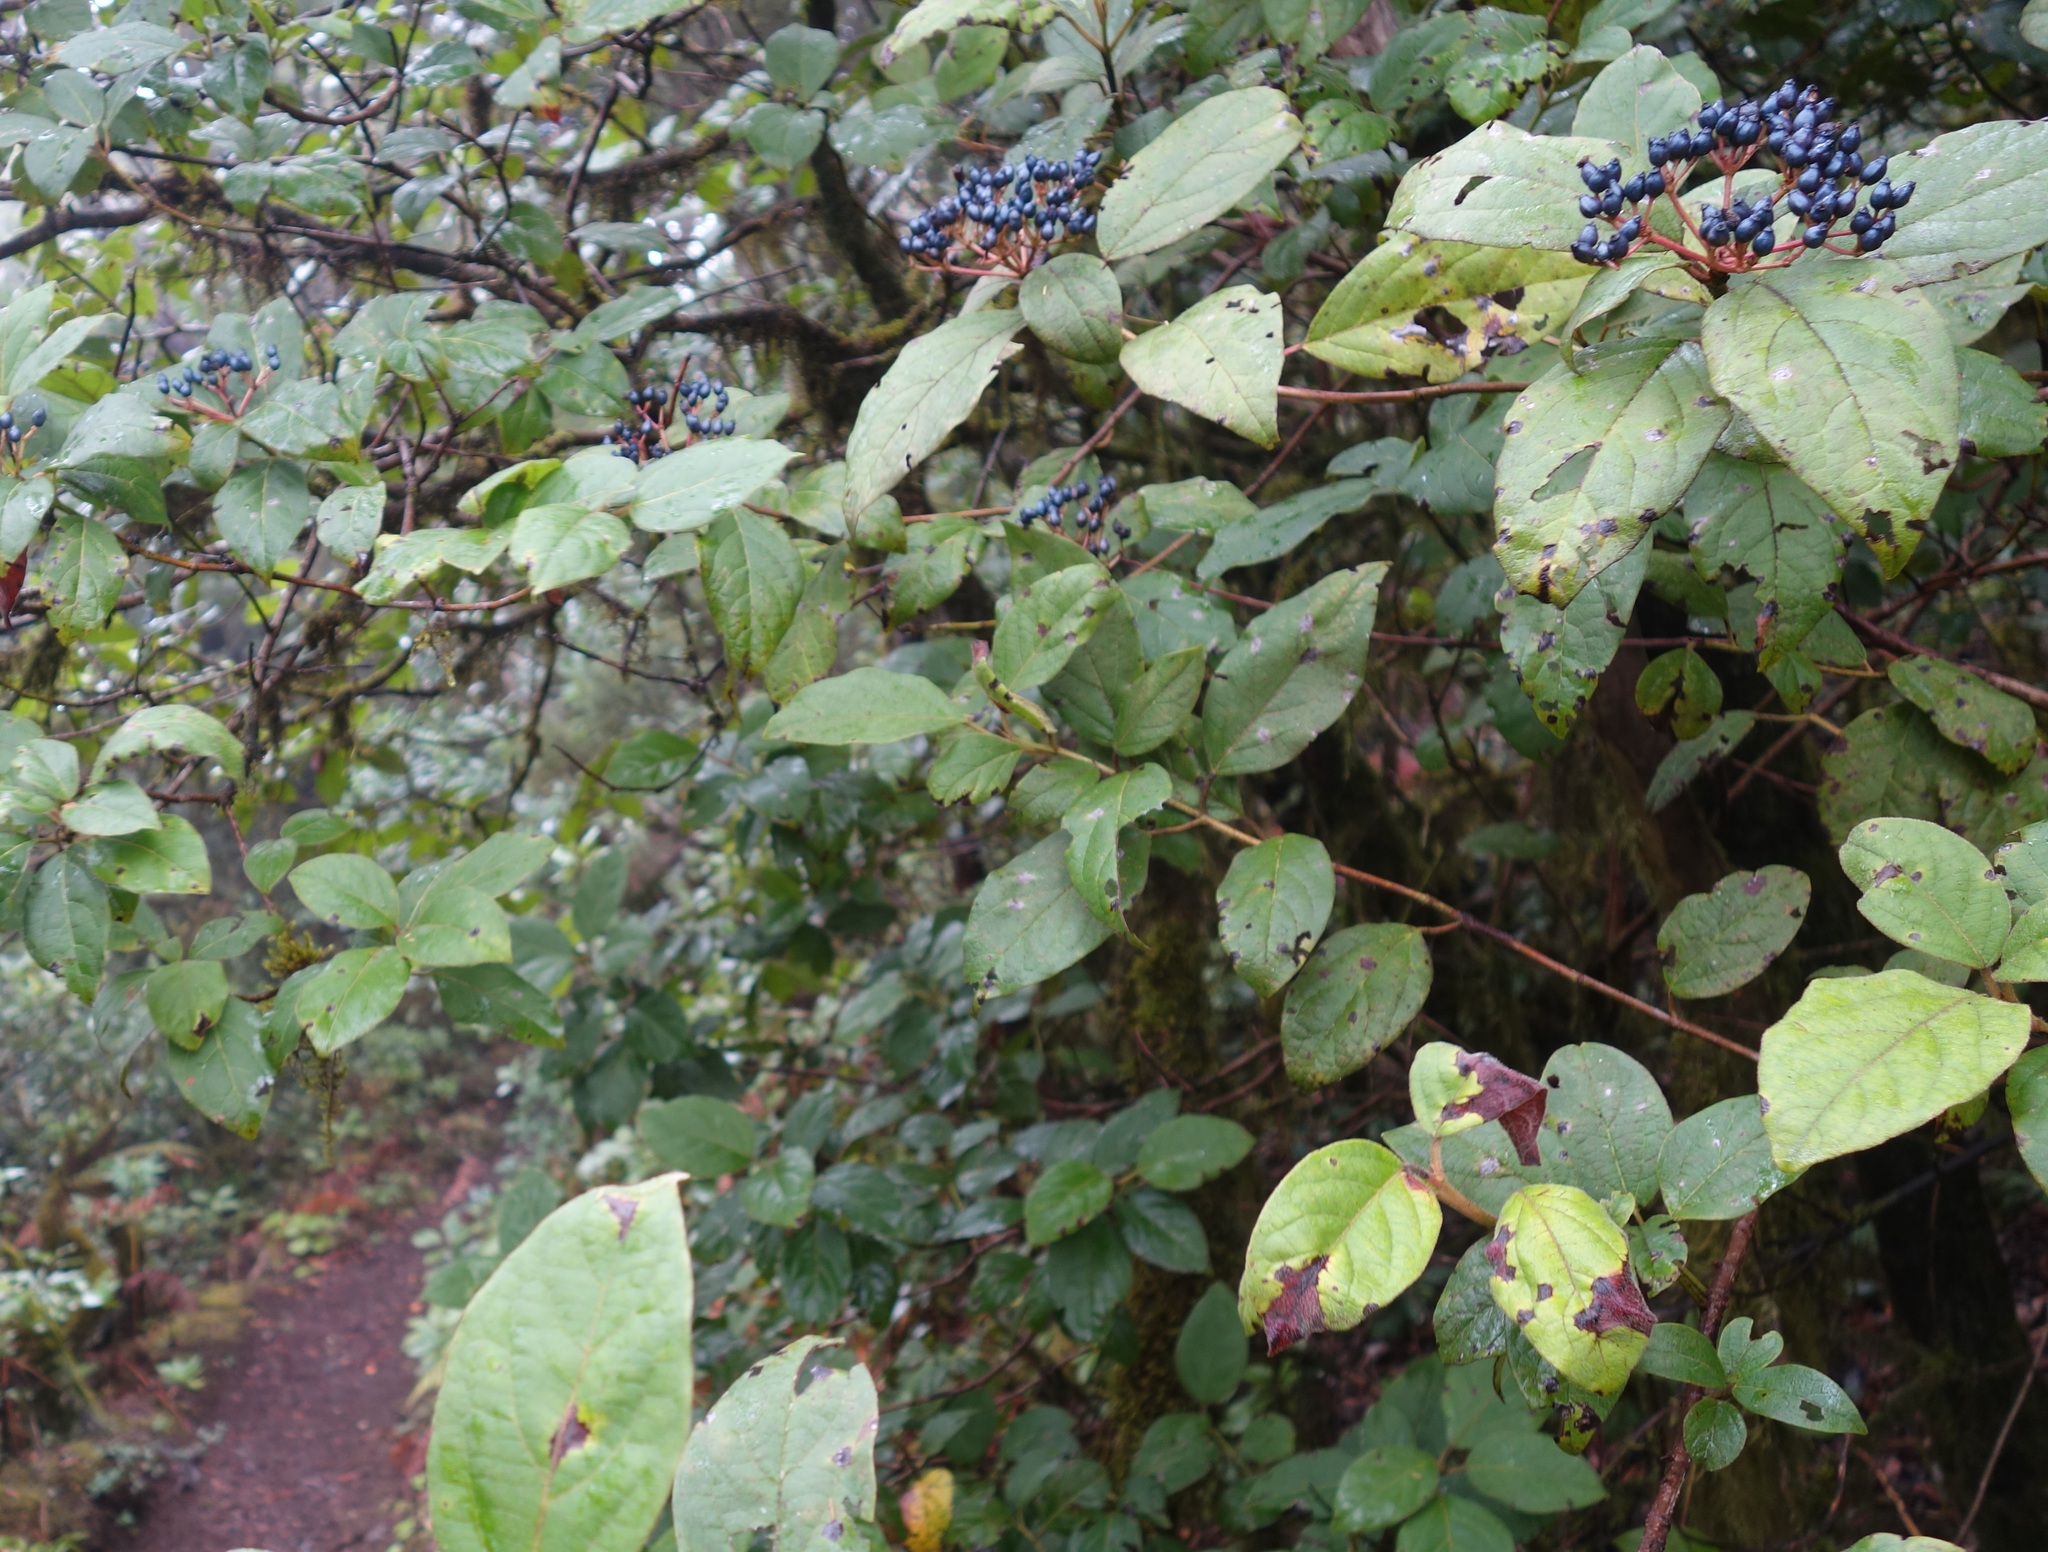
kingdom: Plantae
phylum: Tracheophyta
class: Magnoliopsida
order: Dipsacales
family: Viburnaceae
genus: Viburnum
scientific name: Viburnum rugosum
